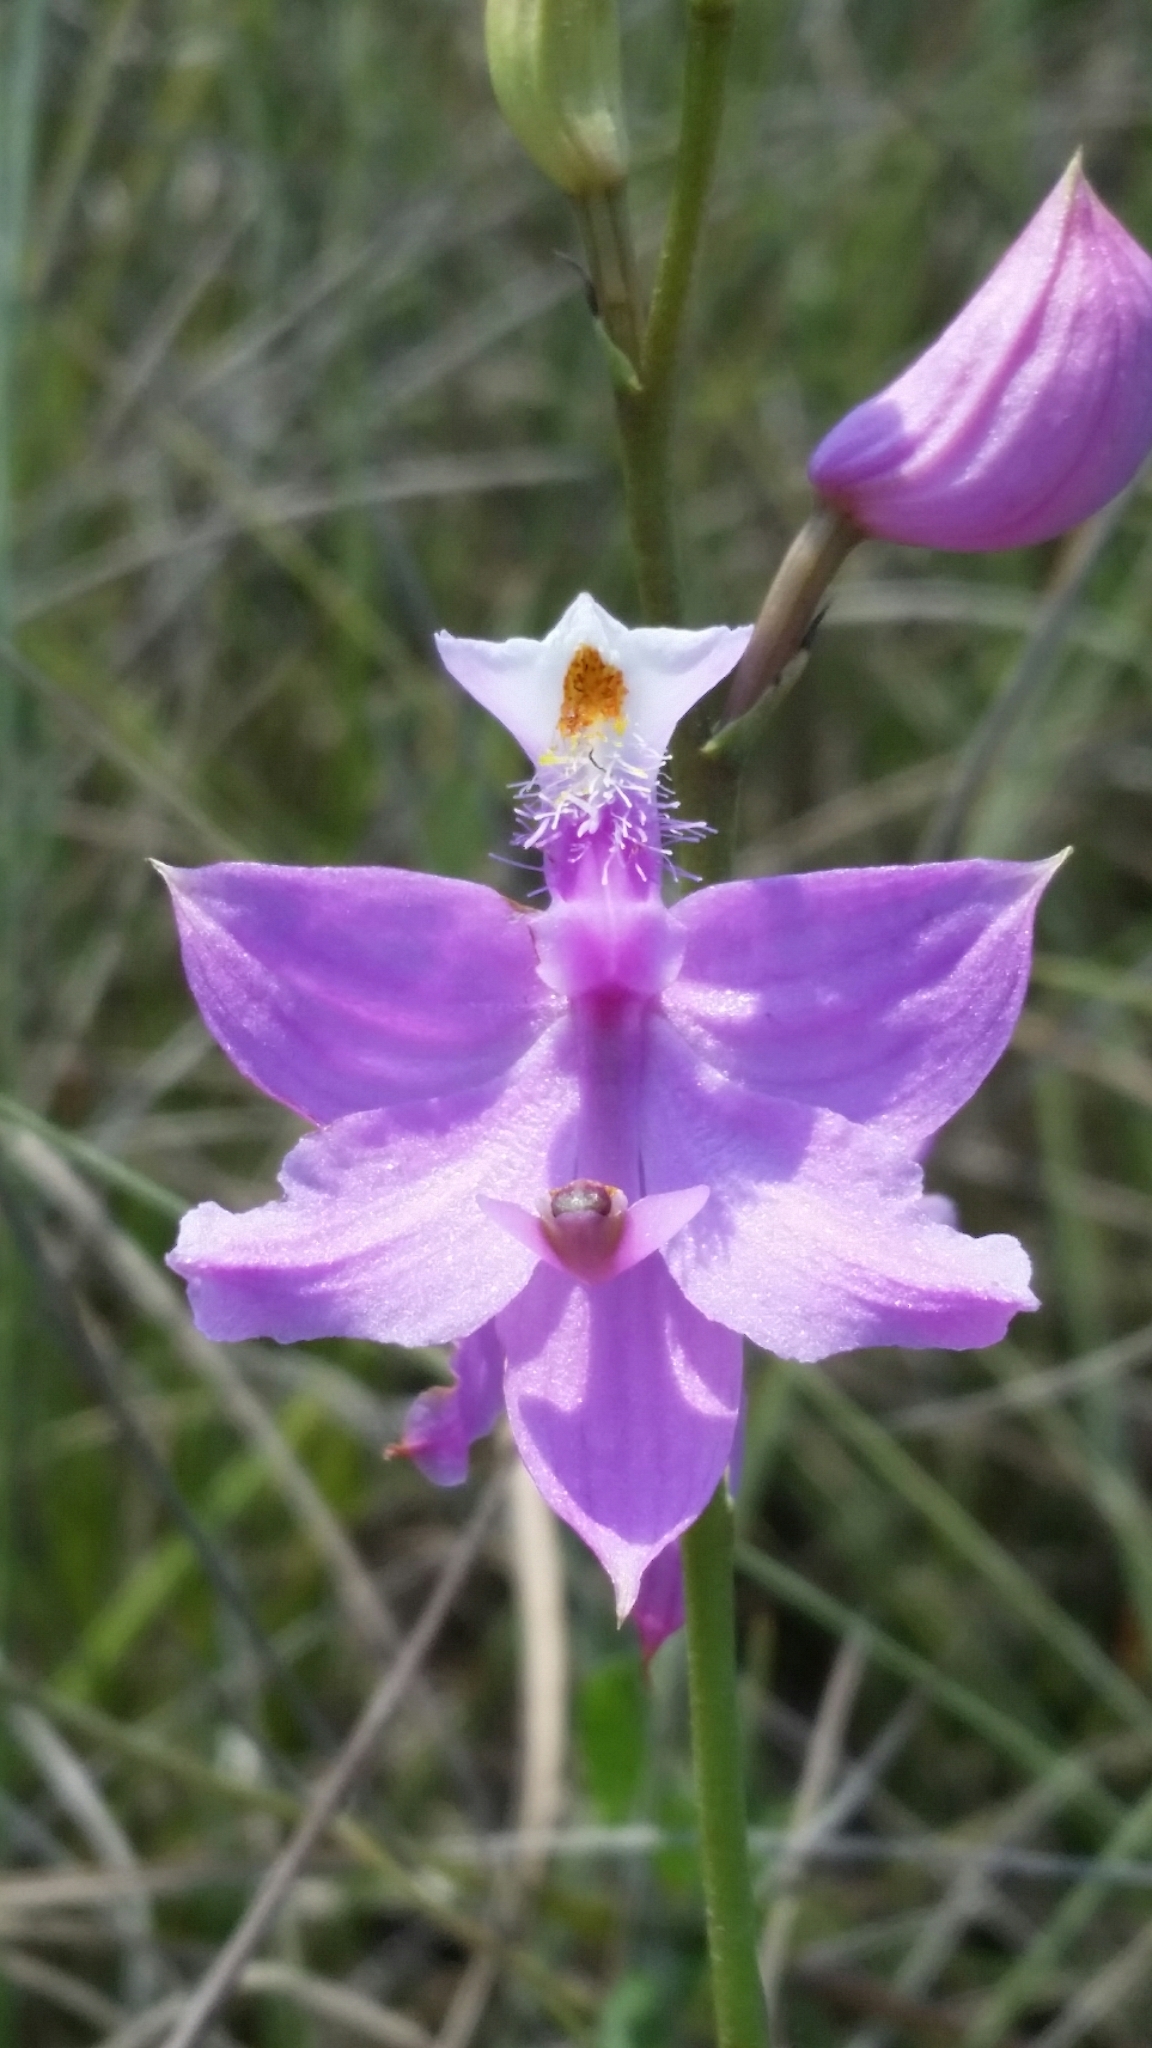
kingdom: Plantae
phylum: Tracheophyta
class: Liliopsida
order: Asparagales
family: Orchidaceae
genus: Calopogon
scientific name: Calopogon tuberosus
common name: Grass-pink
